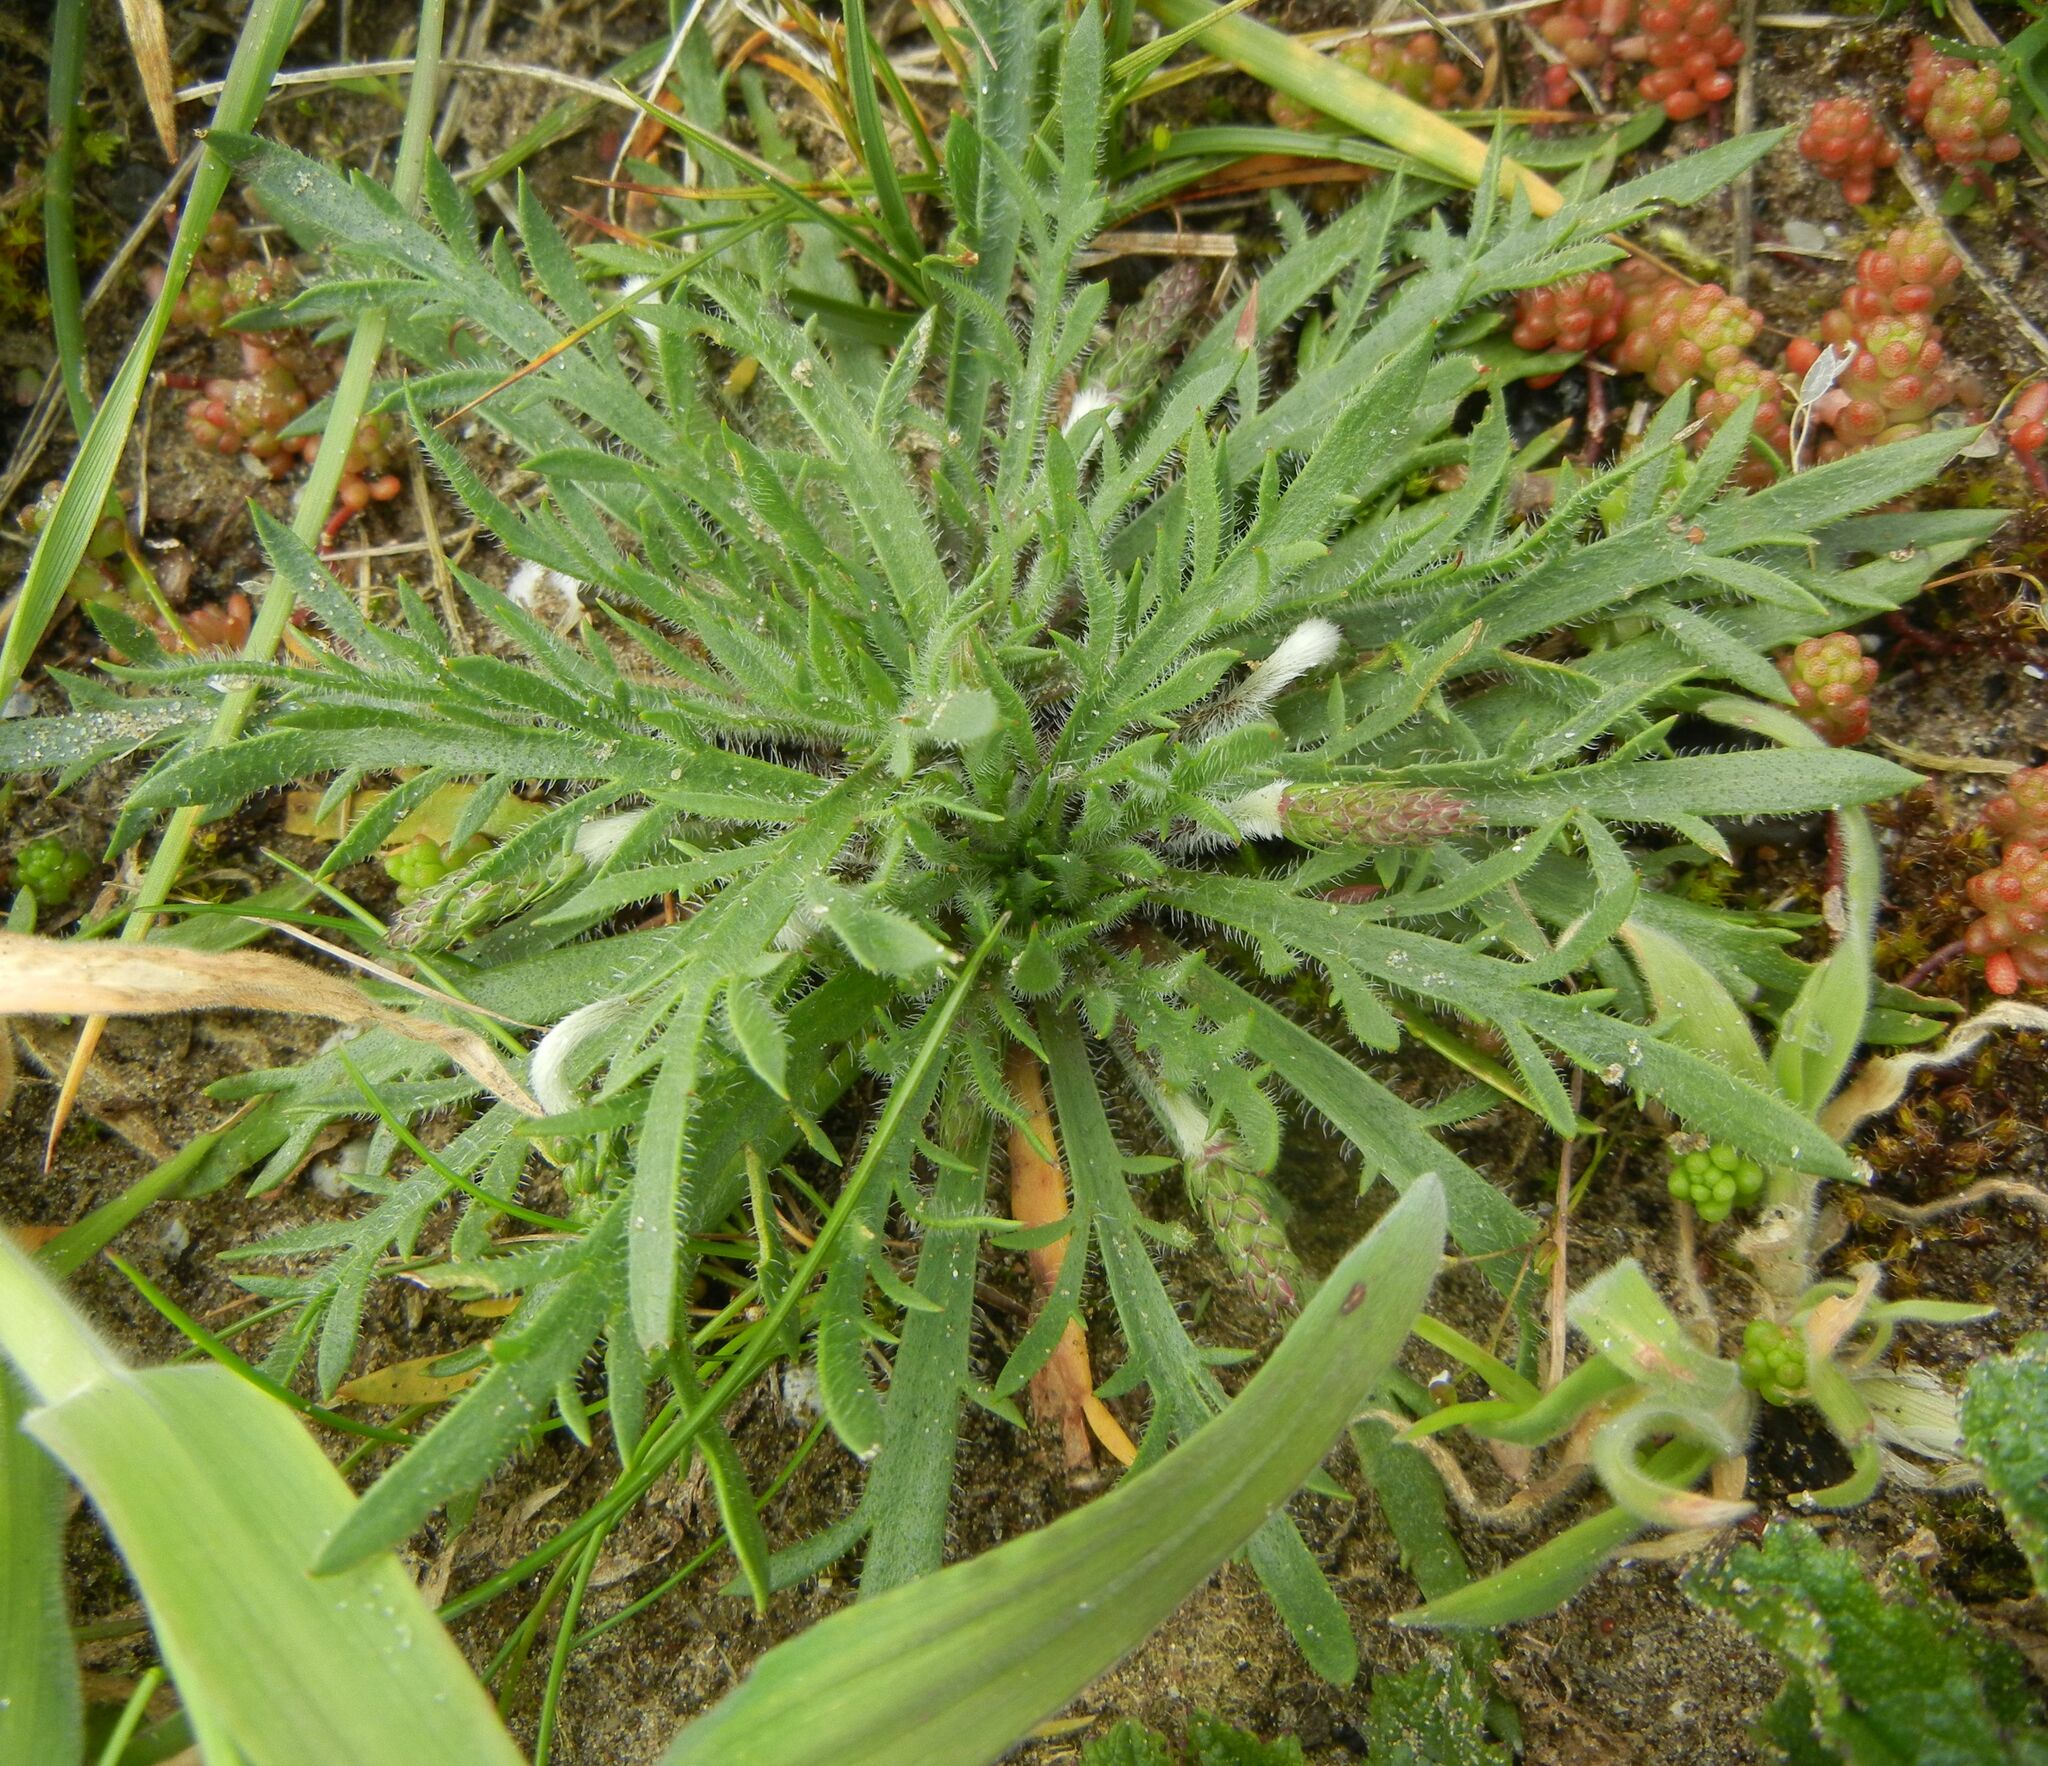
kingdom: Plantae
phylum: Tracheophyta
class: Magnoliopsida
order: Lamiales
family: Plantaginaceae
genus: Plantago
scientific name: Plantago coronopus
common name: Buck's-horn plantain
